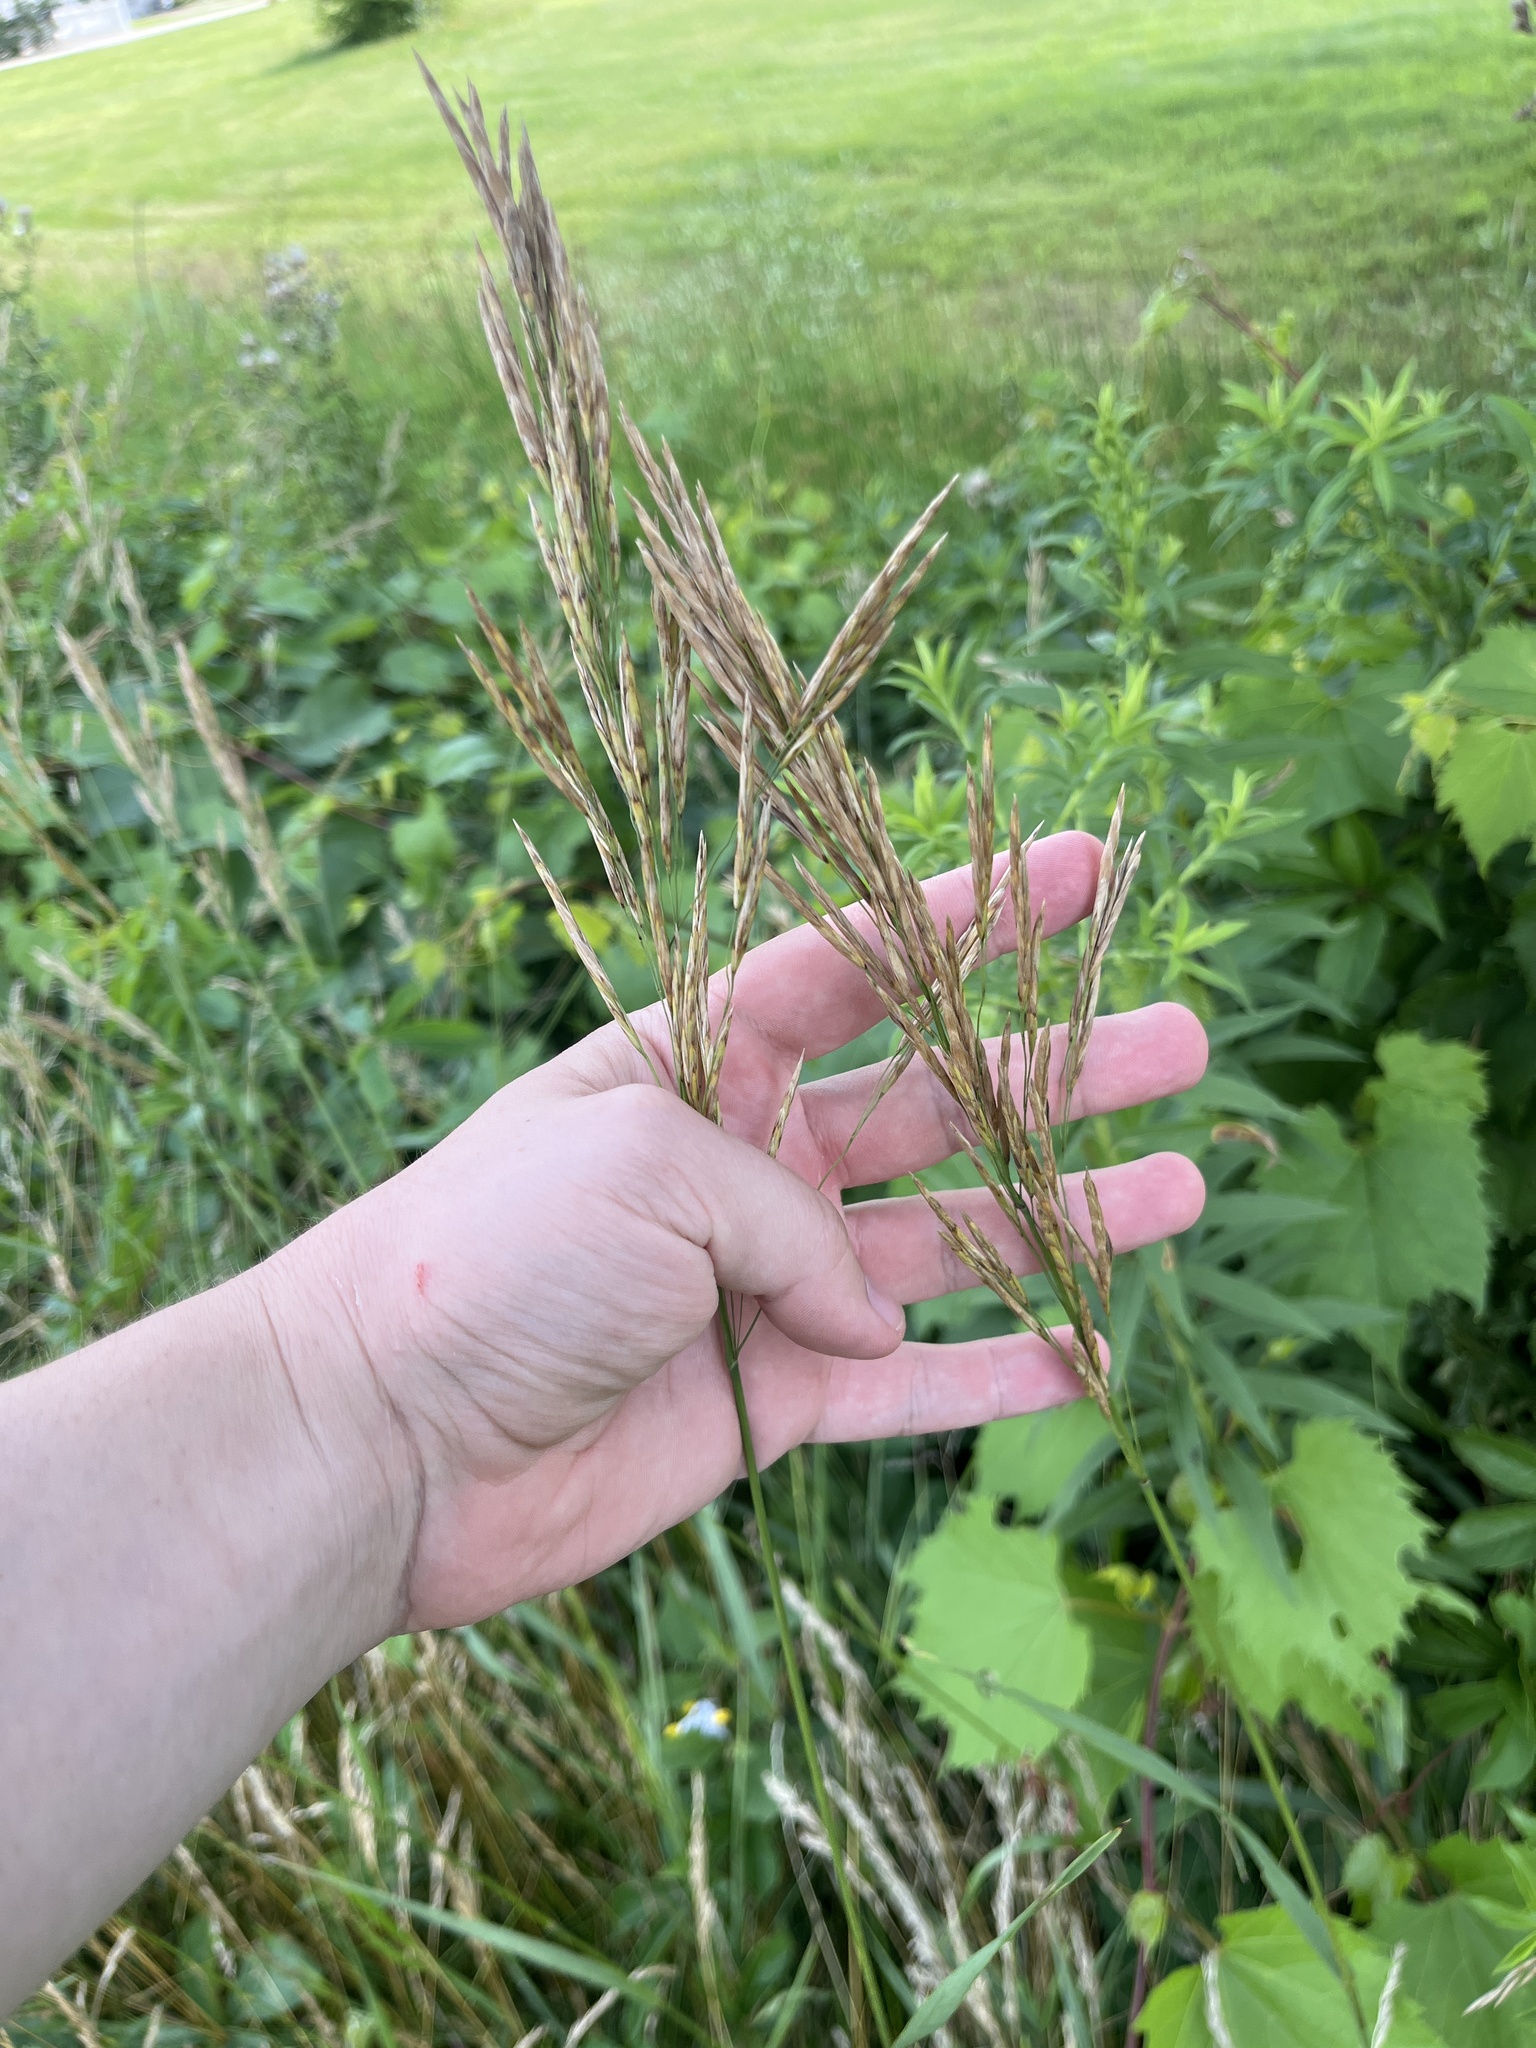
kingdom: Plantae
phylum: Tracheophyta
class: Liliopsida
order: Poales
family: Poaceae
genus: Bromus
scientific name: Bromus inermis
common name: Smooth brome
